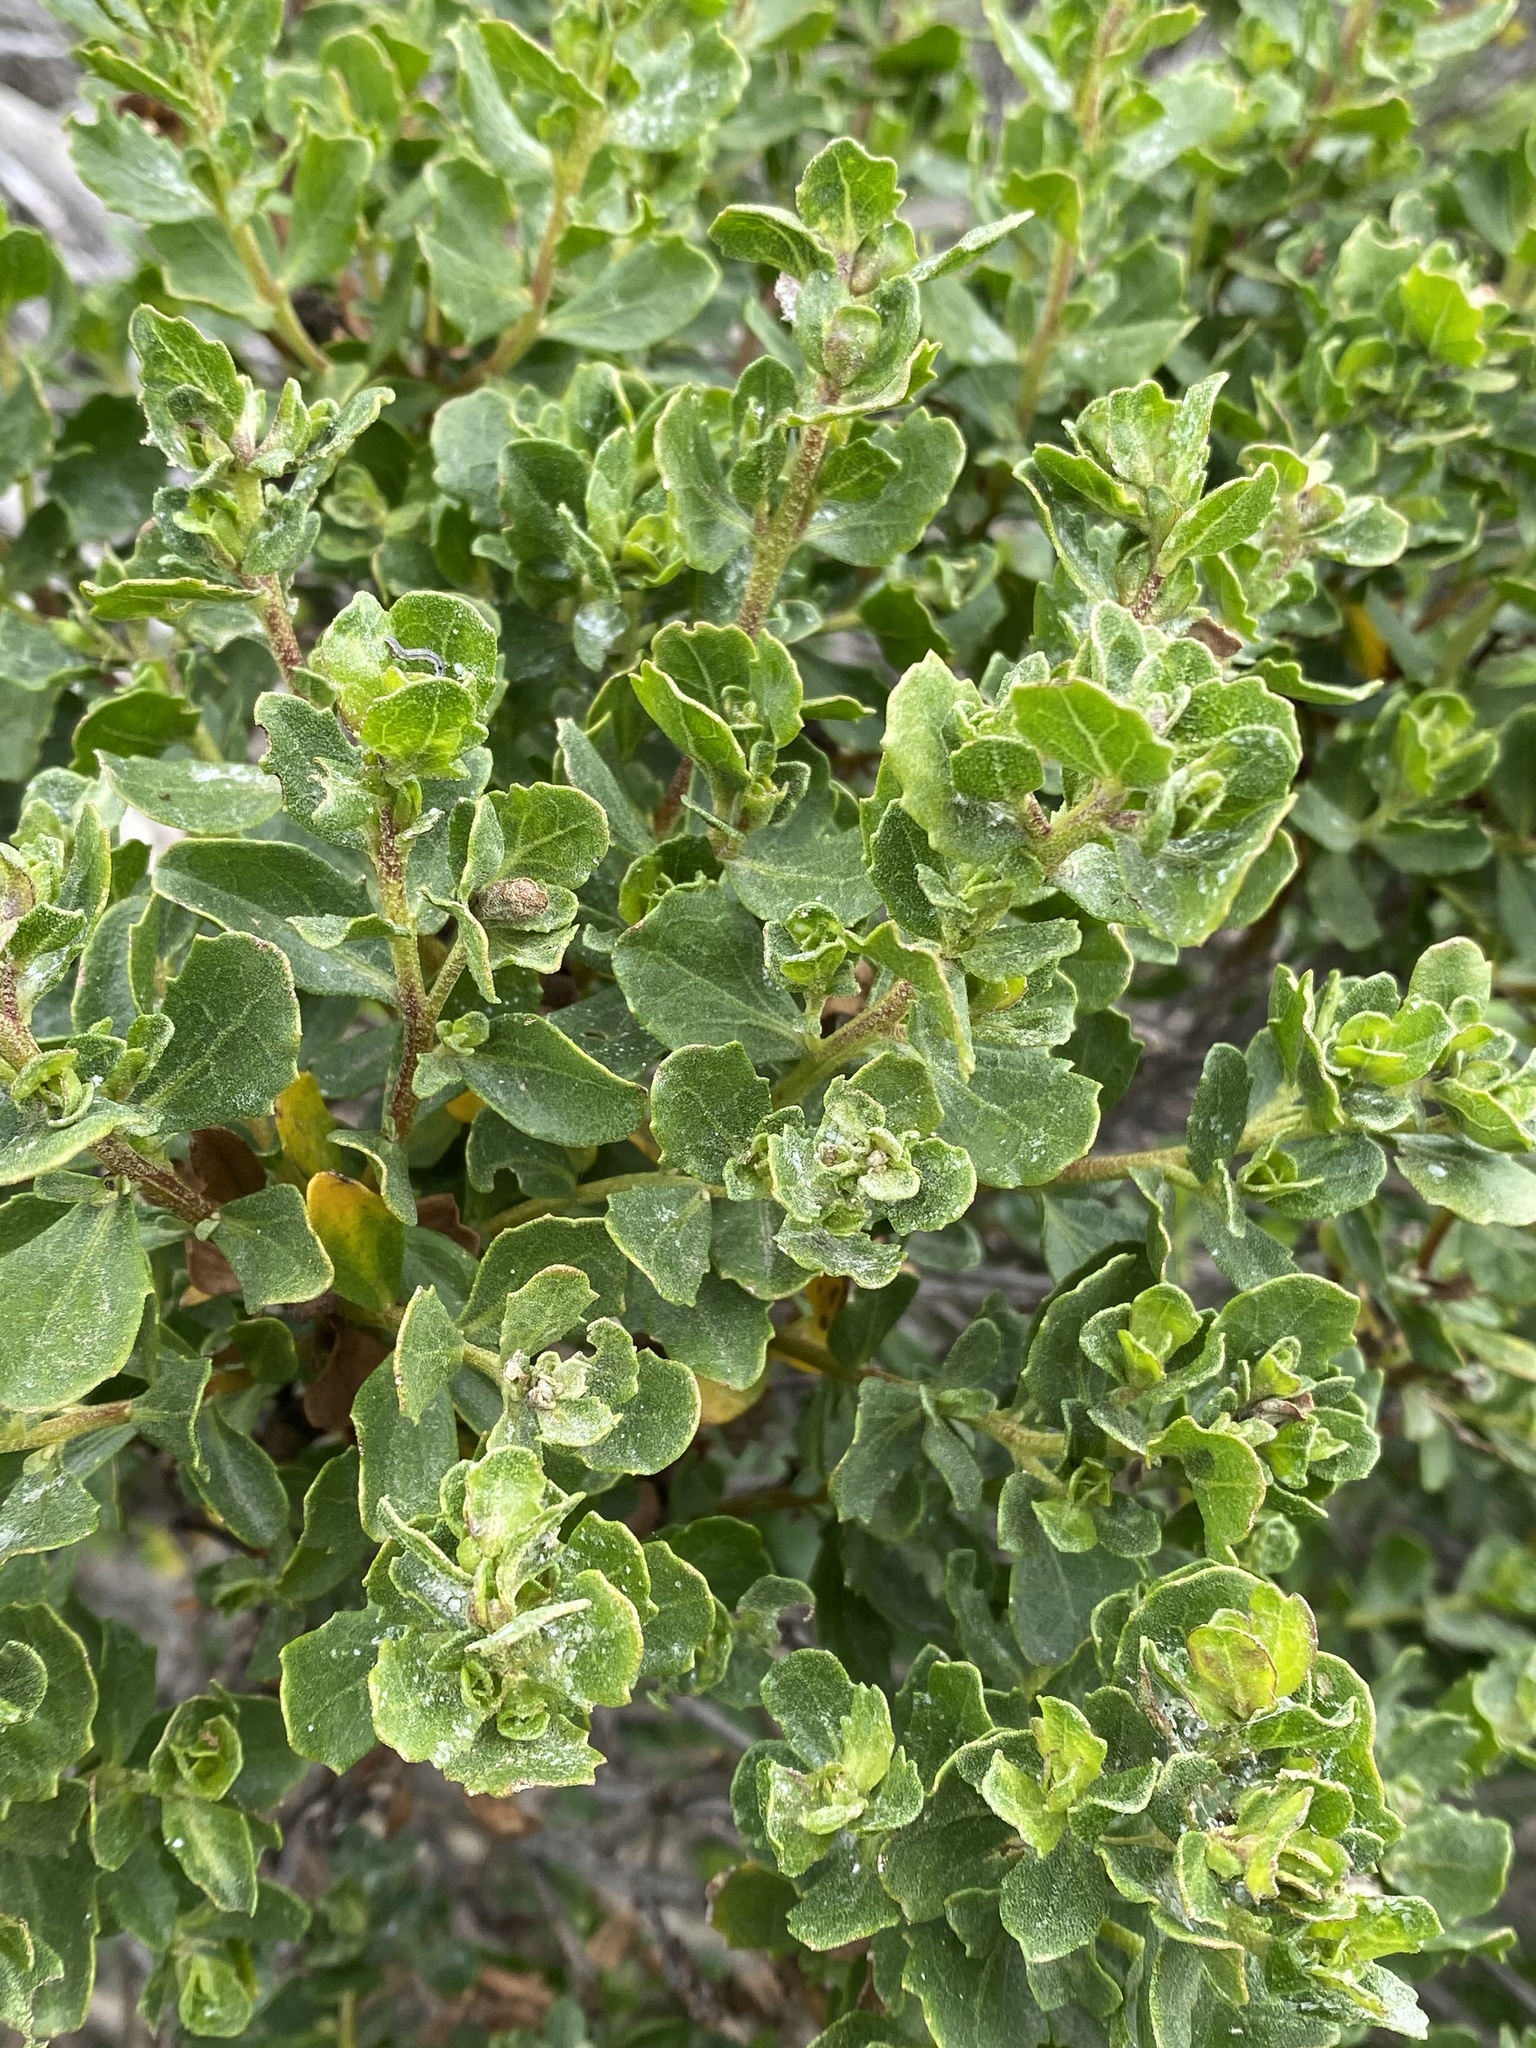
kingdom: Plantae
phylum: Tracheophyta
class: Magnoliopsida
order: Asterales
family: Asteraceae
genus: Baccharis
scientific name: Baccharis pilularis
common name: Coyotebrush
